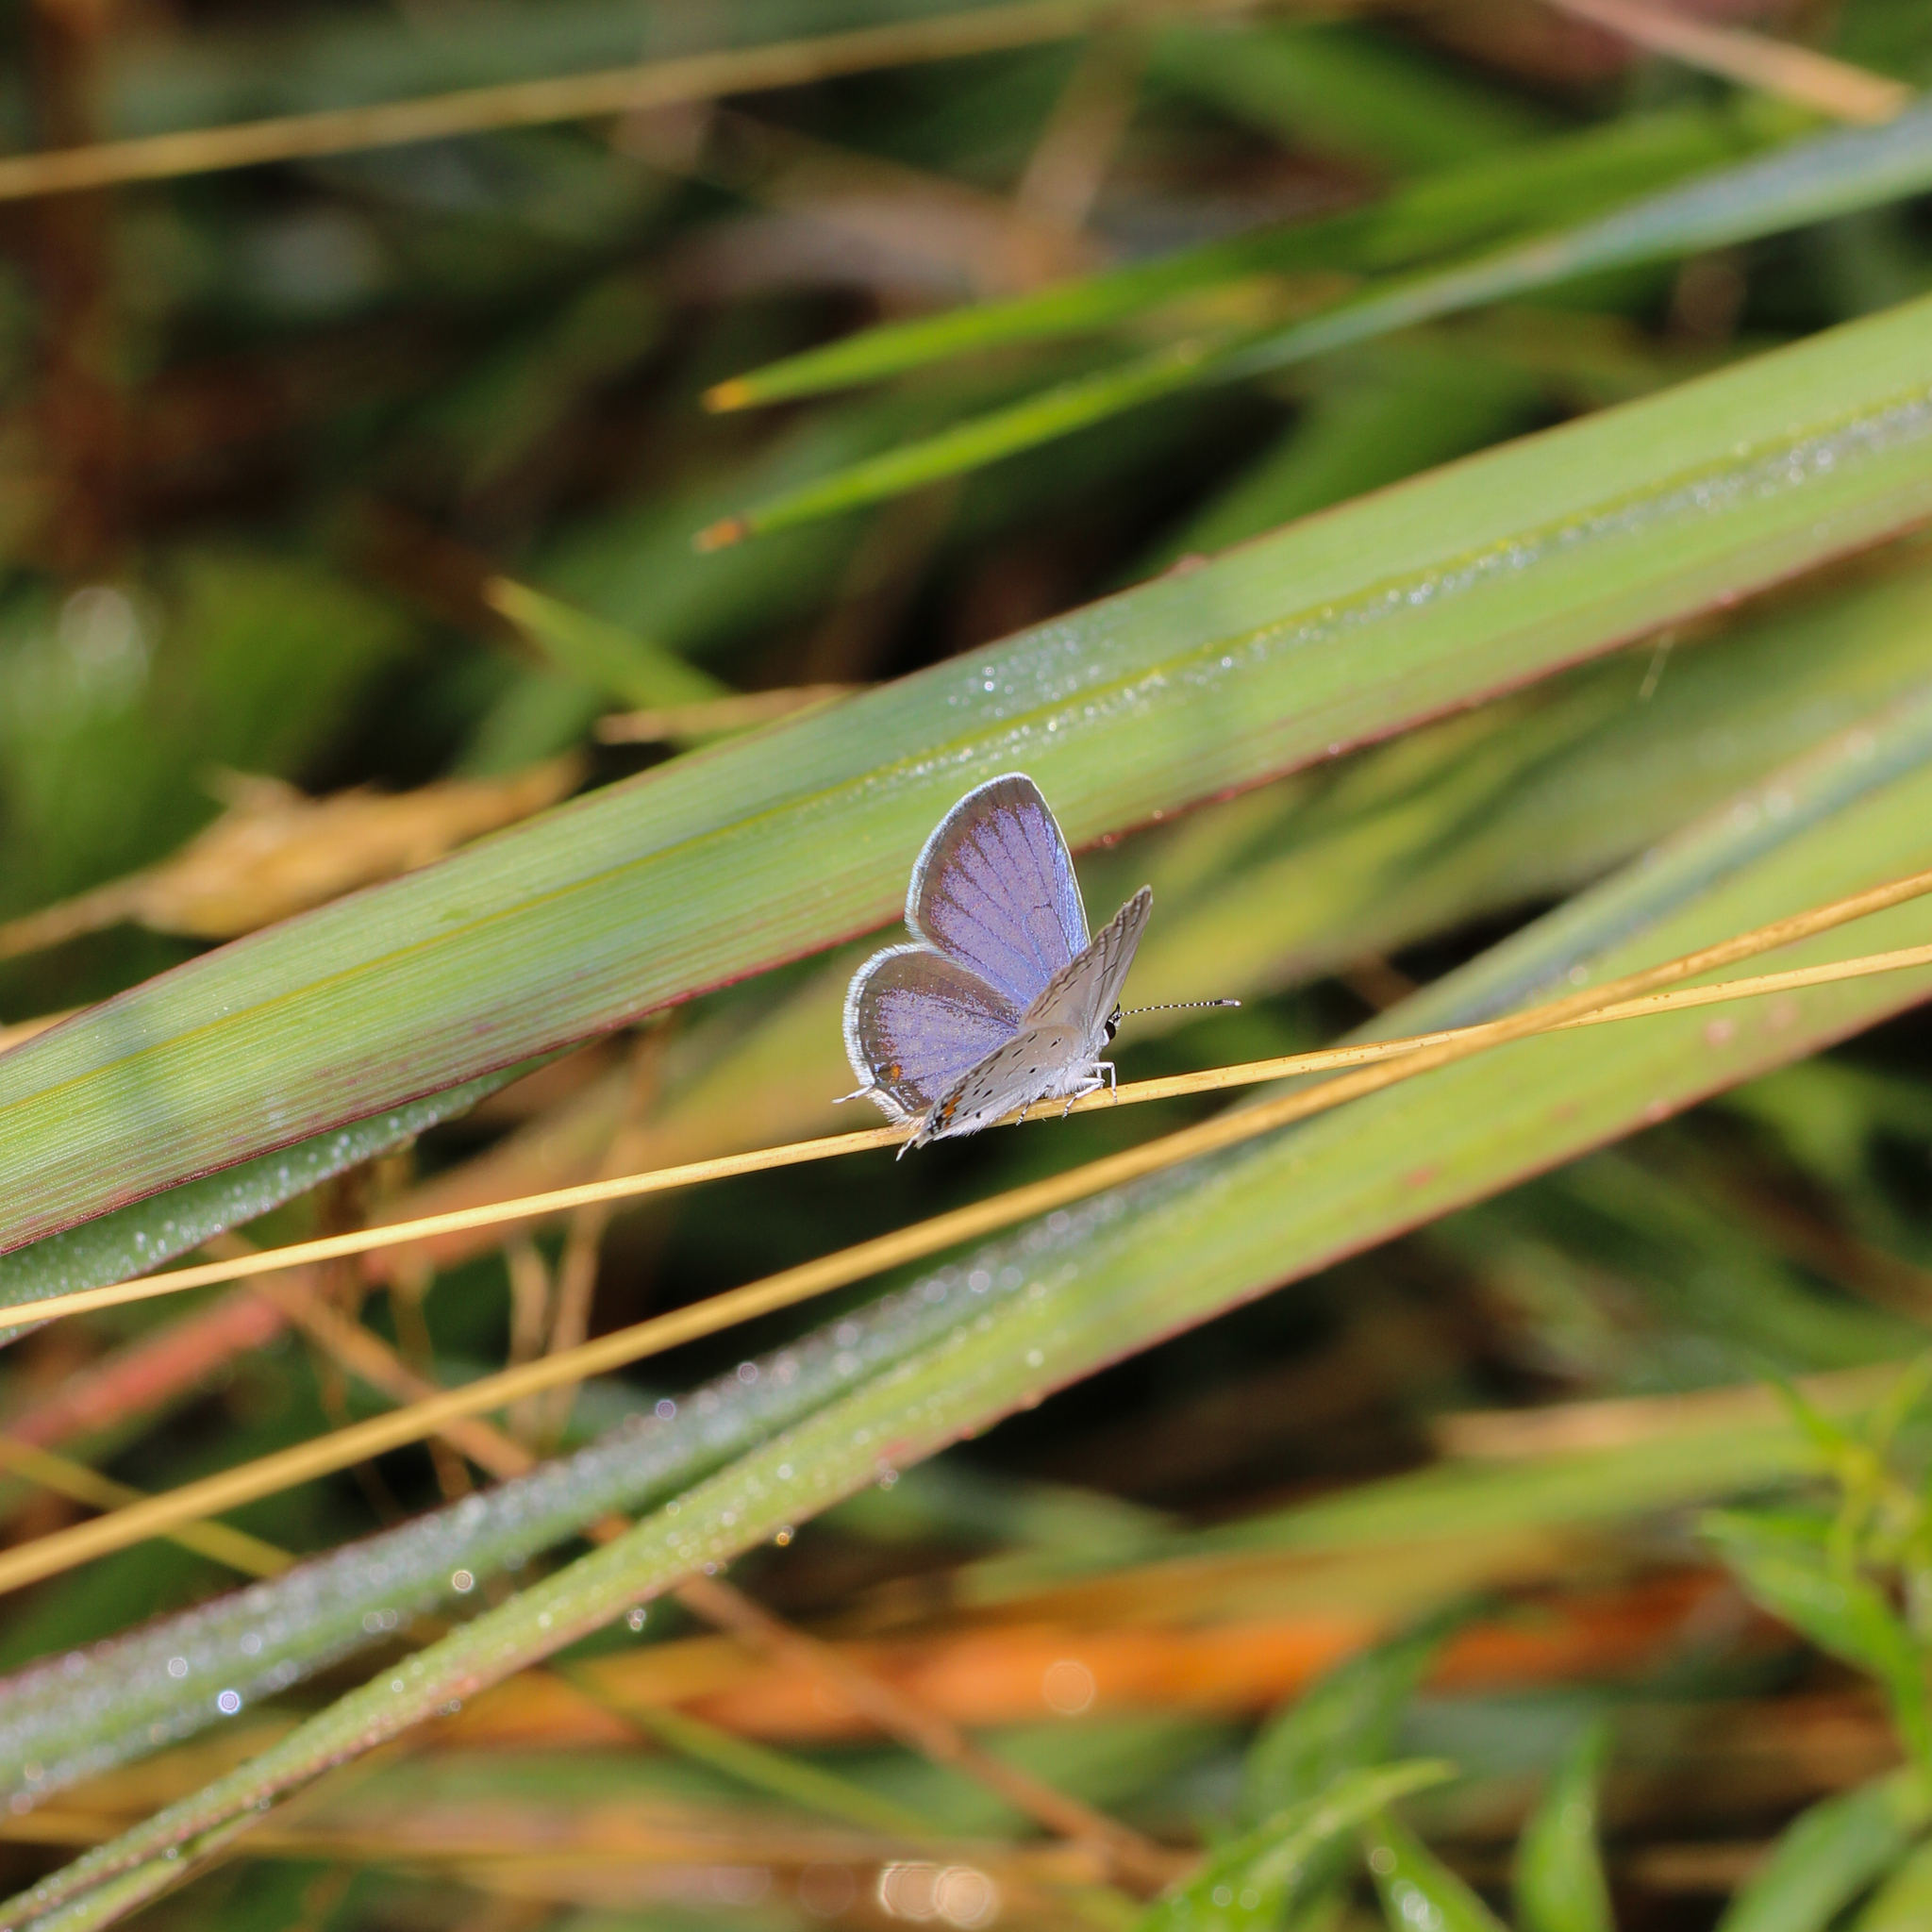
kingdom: Animalia
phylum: Arthropoda
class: Insecta
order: Lepidoptera
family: Lycaenidae
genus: Elkalyce
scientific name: Elkalyce comyntas
